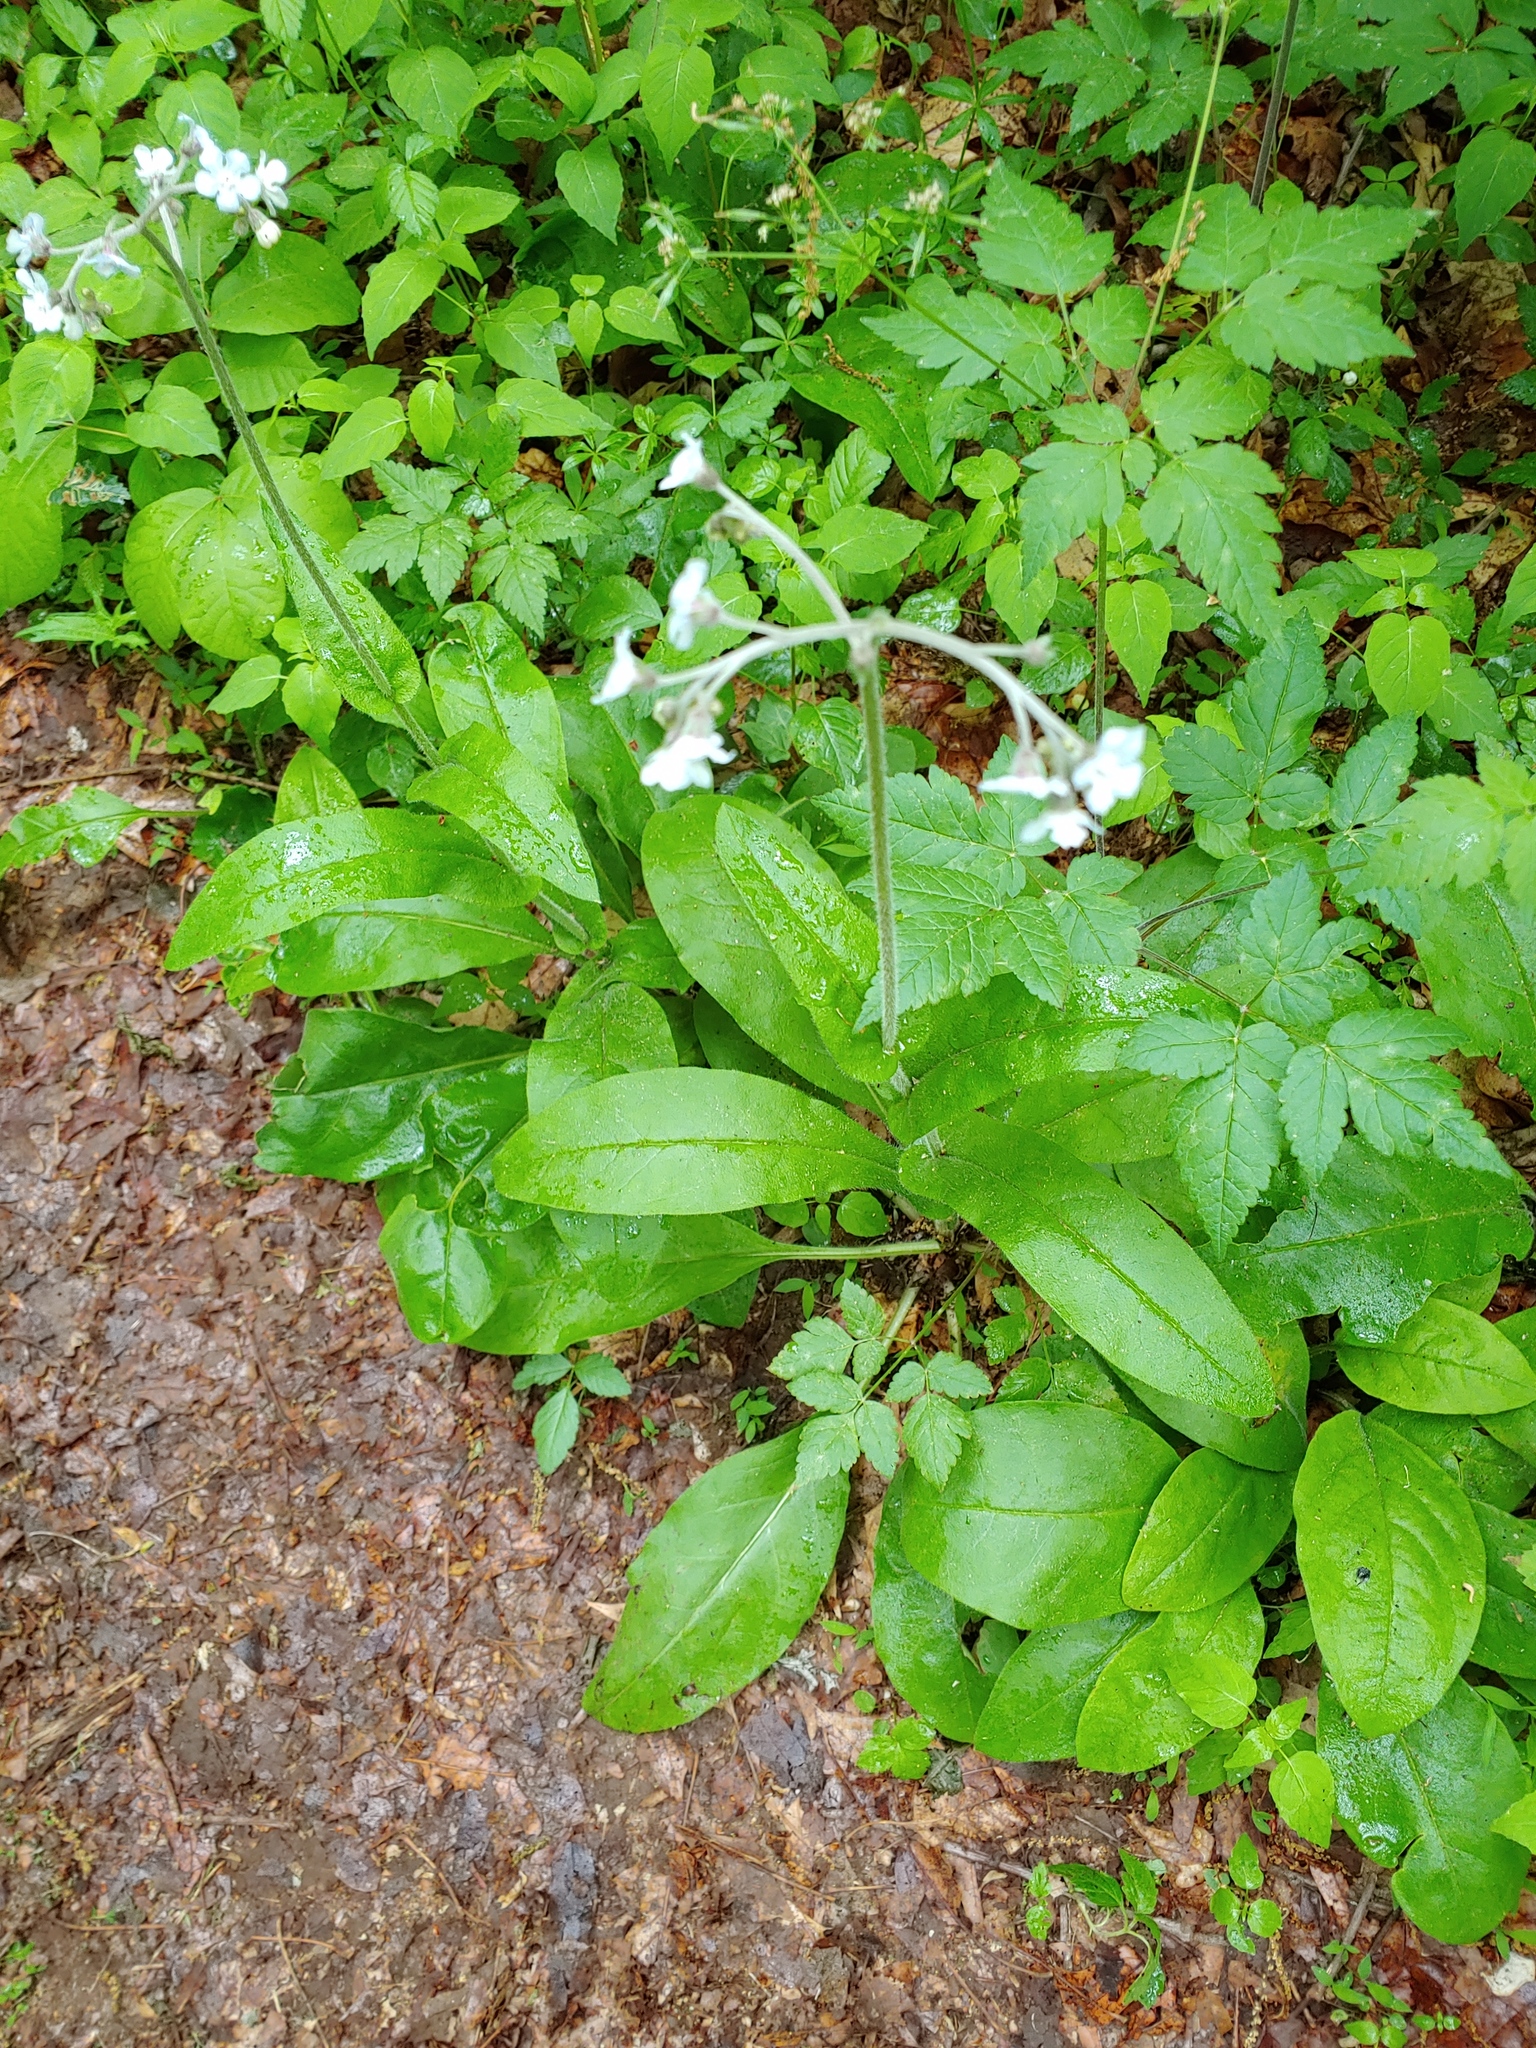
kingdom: Plantae
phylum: Tracheophyta
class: Magnoliopsida
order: Boraginales
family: Boraginaceae
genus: Andersonglossum
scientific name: Andersonglossum virginianum
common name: Wild comfrey
